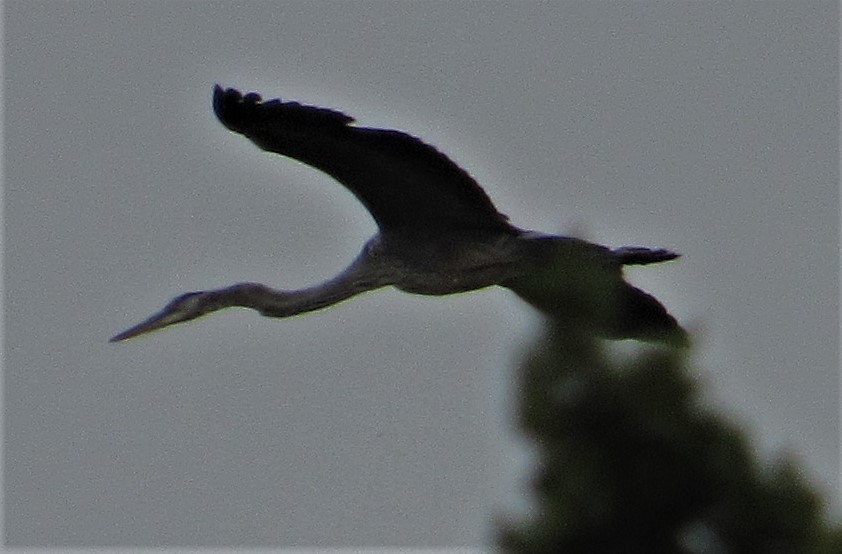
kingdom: Animalia
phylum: Chordata
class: Aves
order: Pelecaniformes
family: Ardeidae
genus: Ardea
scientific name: Ardea herodias
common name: Great blue heron
